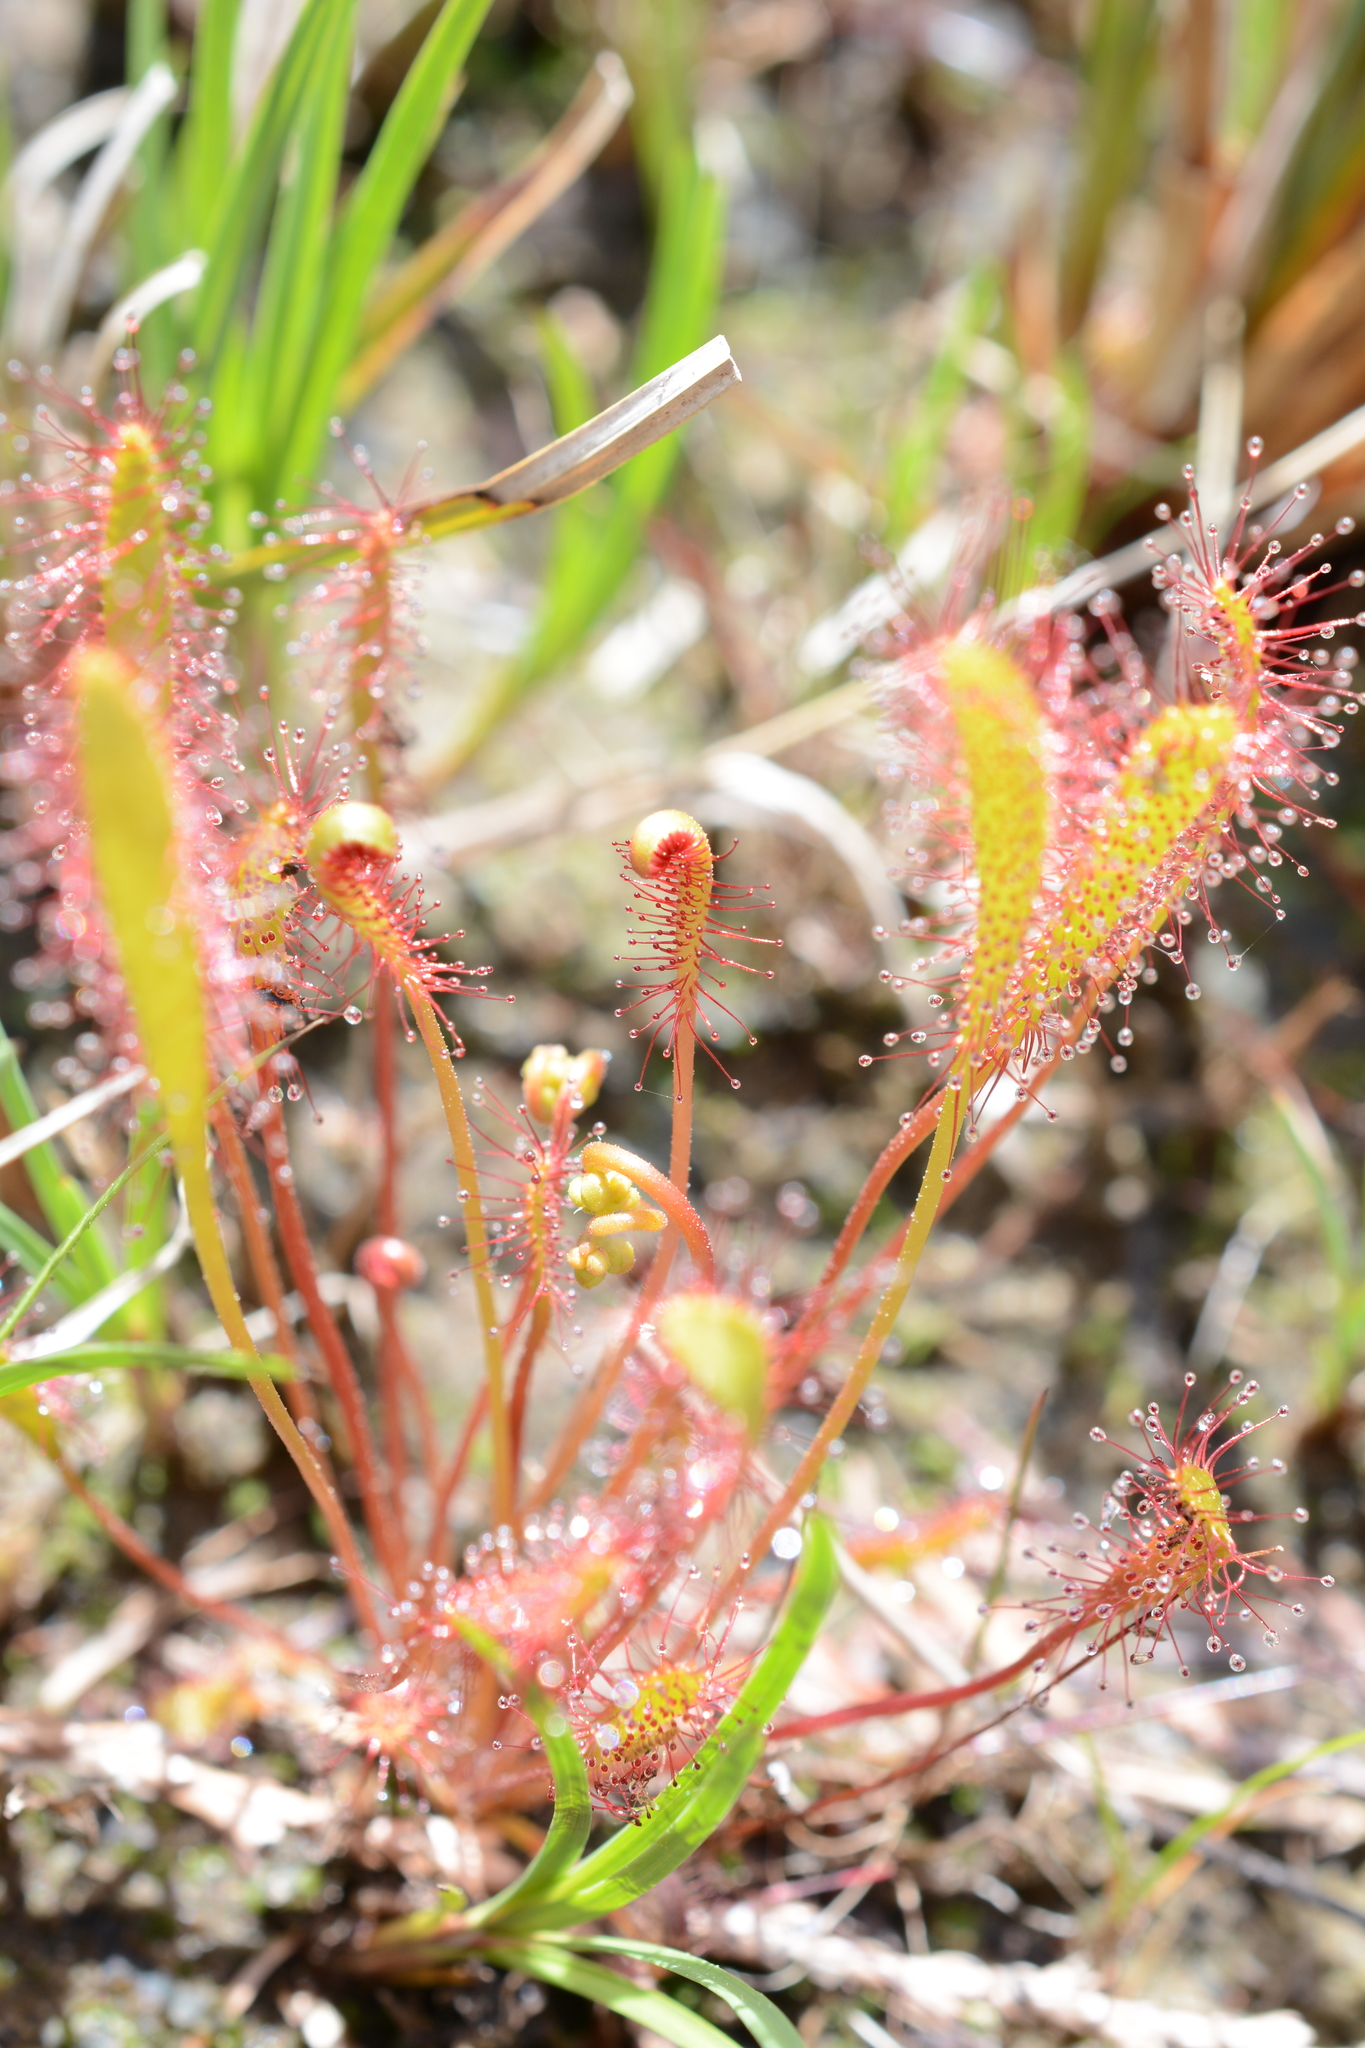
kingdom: Plantae
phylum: Tracheophyta
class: Magnoliopsida
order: Caryophyllales
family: Droseraceae
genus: Drosera
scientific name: Drosera anglica
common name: Great sundew
